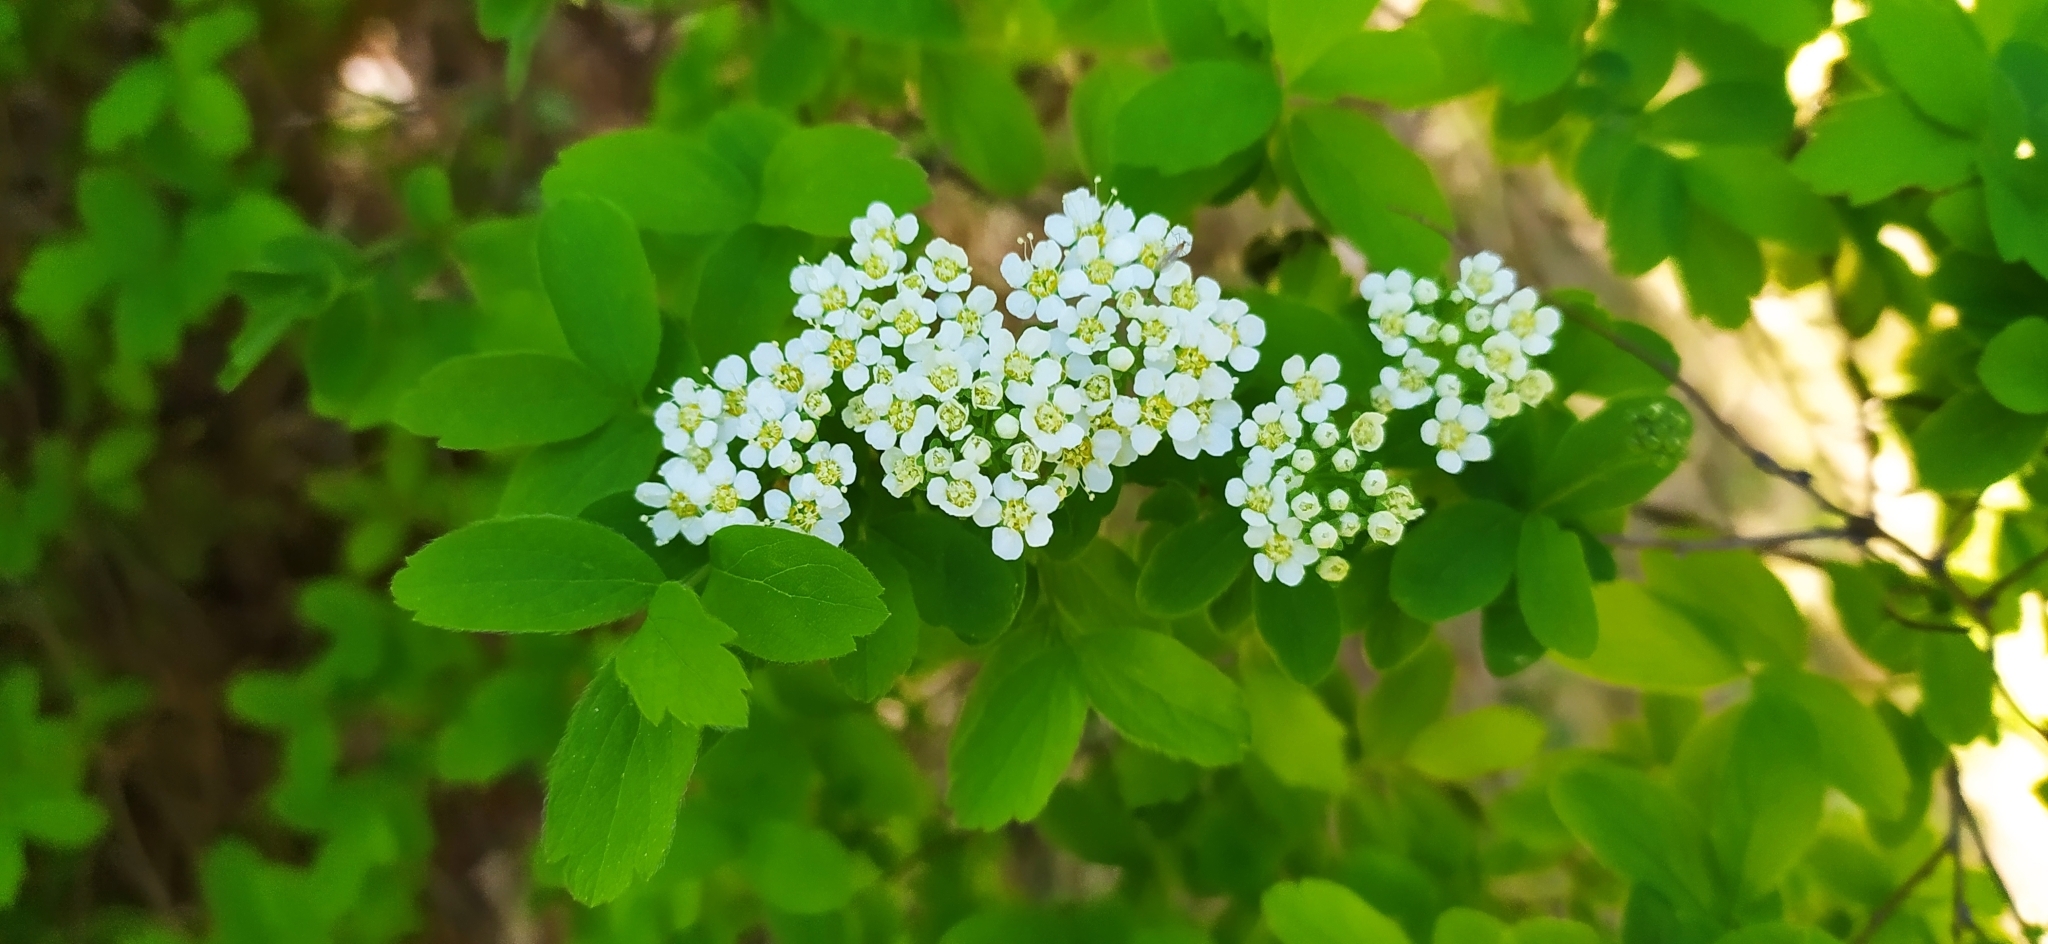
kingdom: Plantae
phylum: Tracheophyta
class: Magnoliopsida
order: Rosales
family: Rosaceae
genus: Spiraea
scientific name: Spiraea media
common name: Russian spiraea
